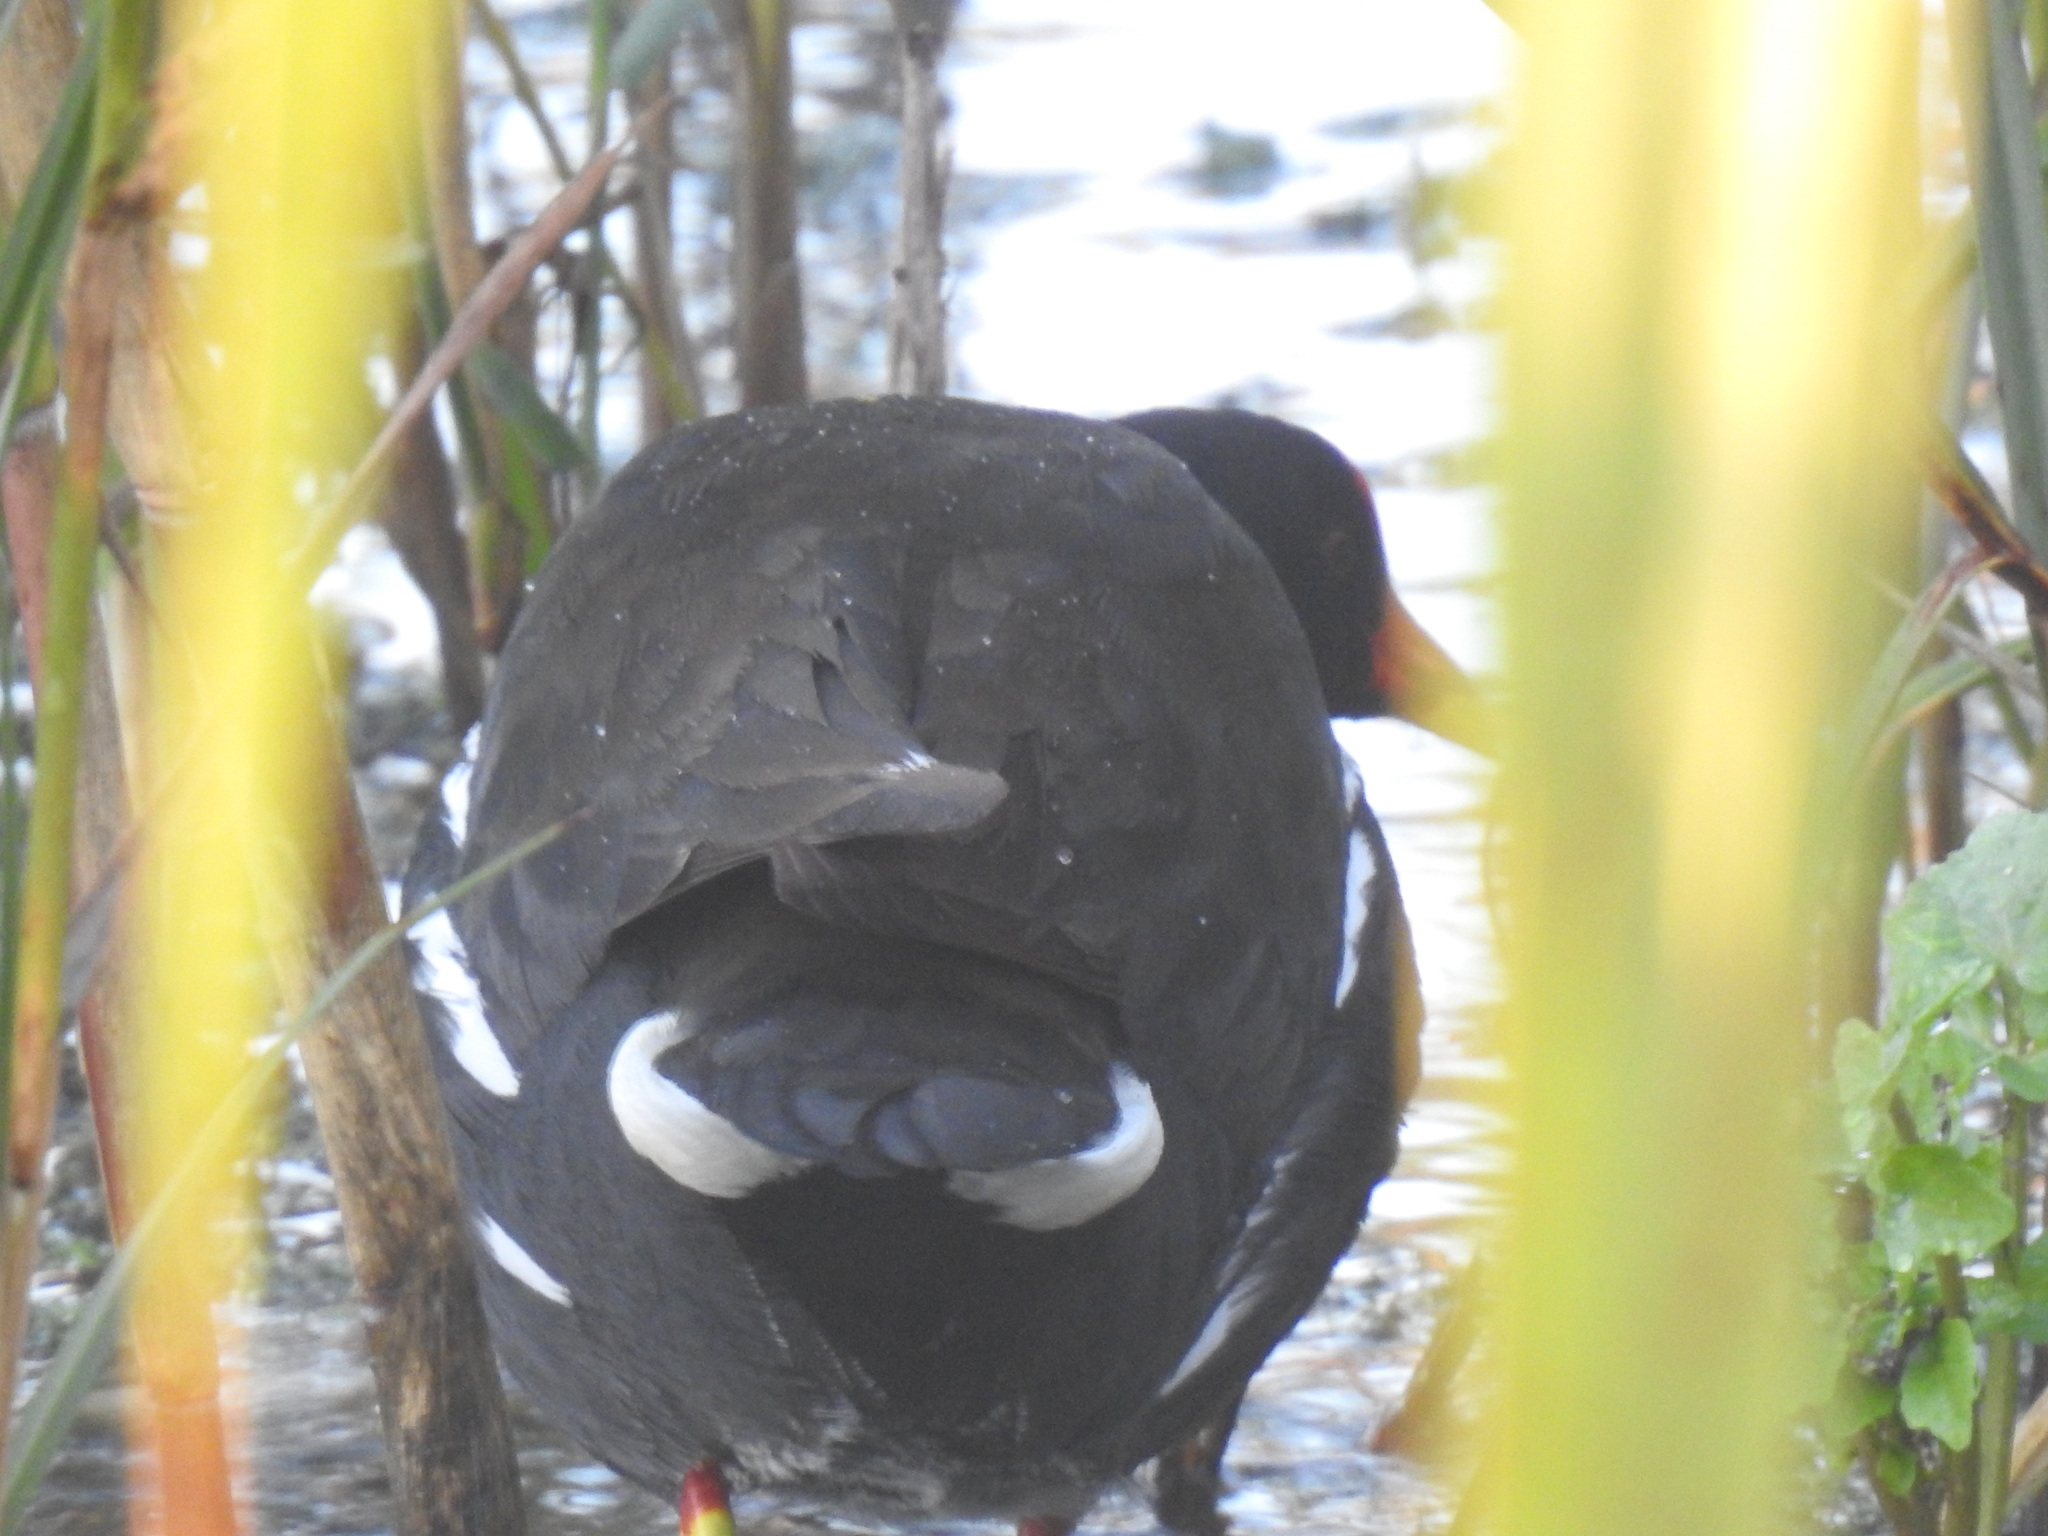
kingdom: Animalia
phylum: Chordata
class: Aves
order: Gruiformes
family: Rallidae
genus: Gallinula
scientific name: Gallinula chloropus
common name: Common moorhen
